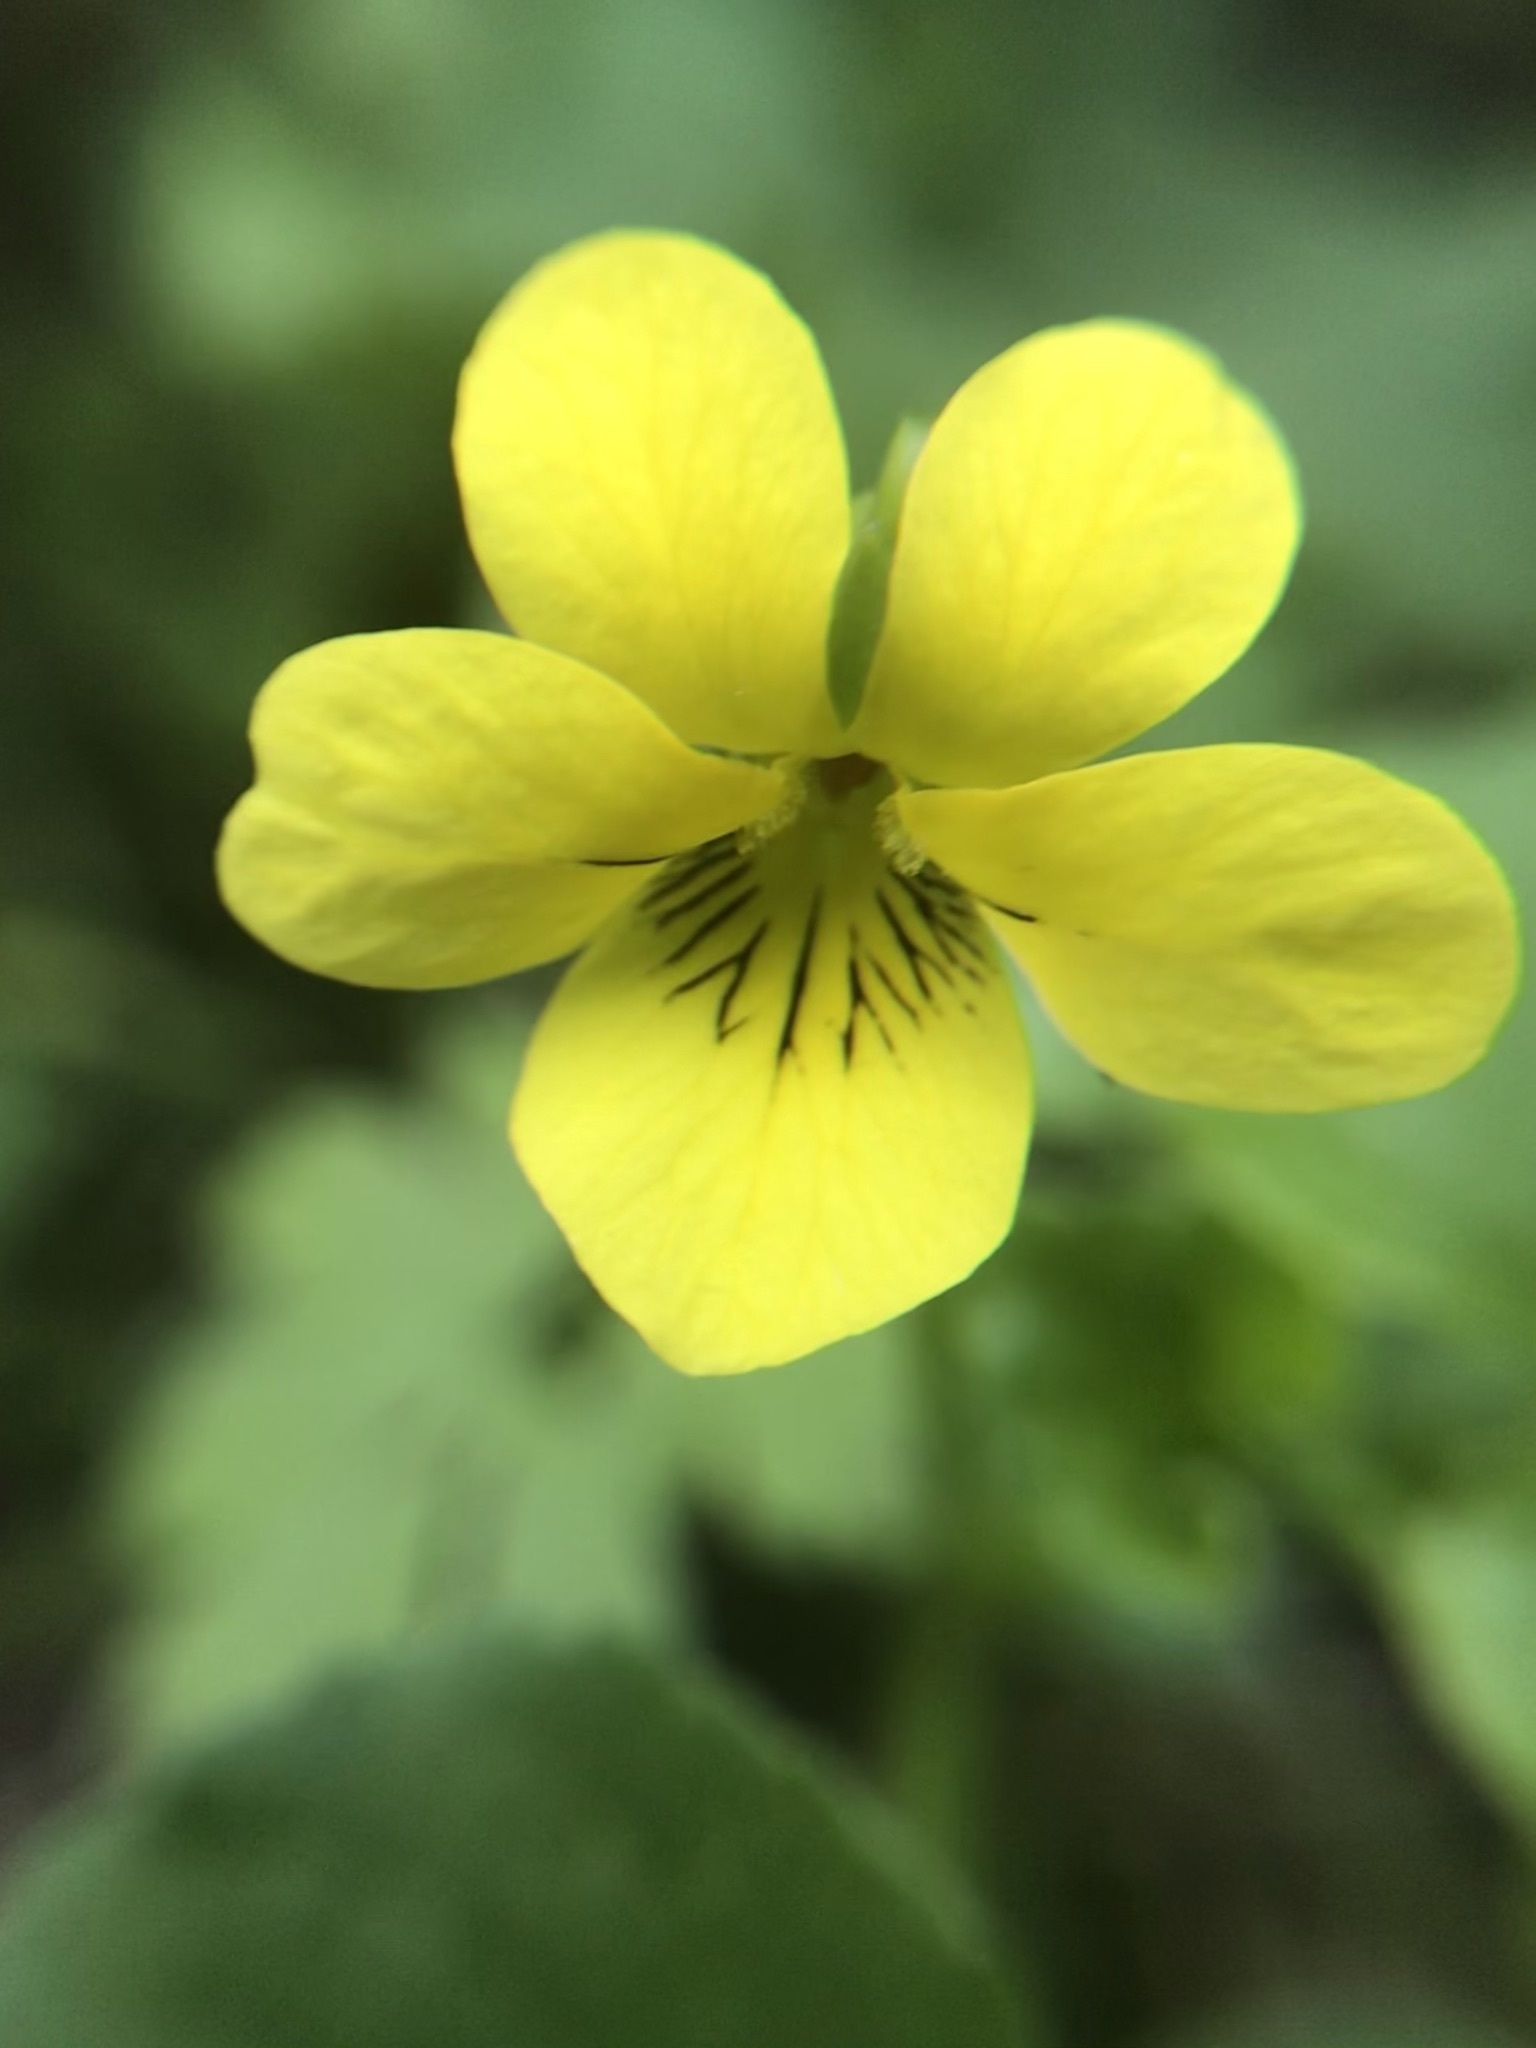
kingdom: Plantae
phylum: Tracheophyta
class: Magnoliopsida
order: Malpighiales
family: Violaceae
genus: Viola
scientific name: Viola glabella
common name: Stream violet
